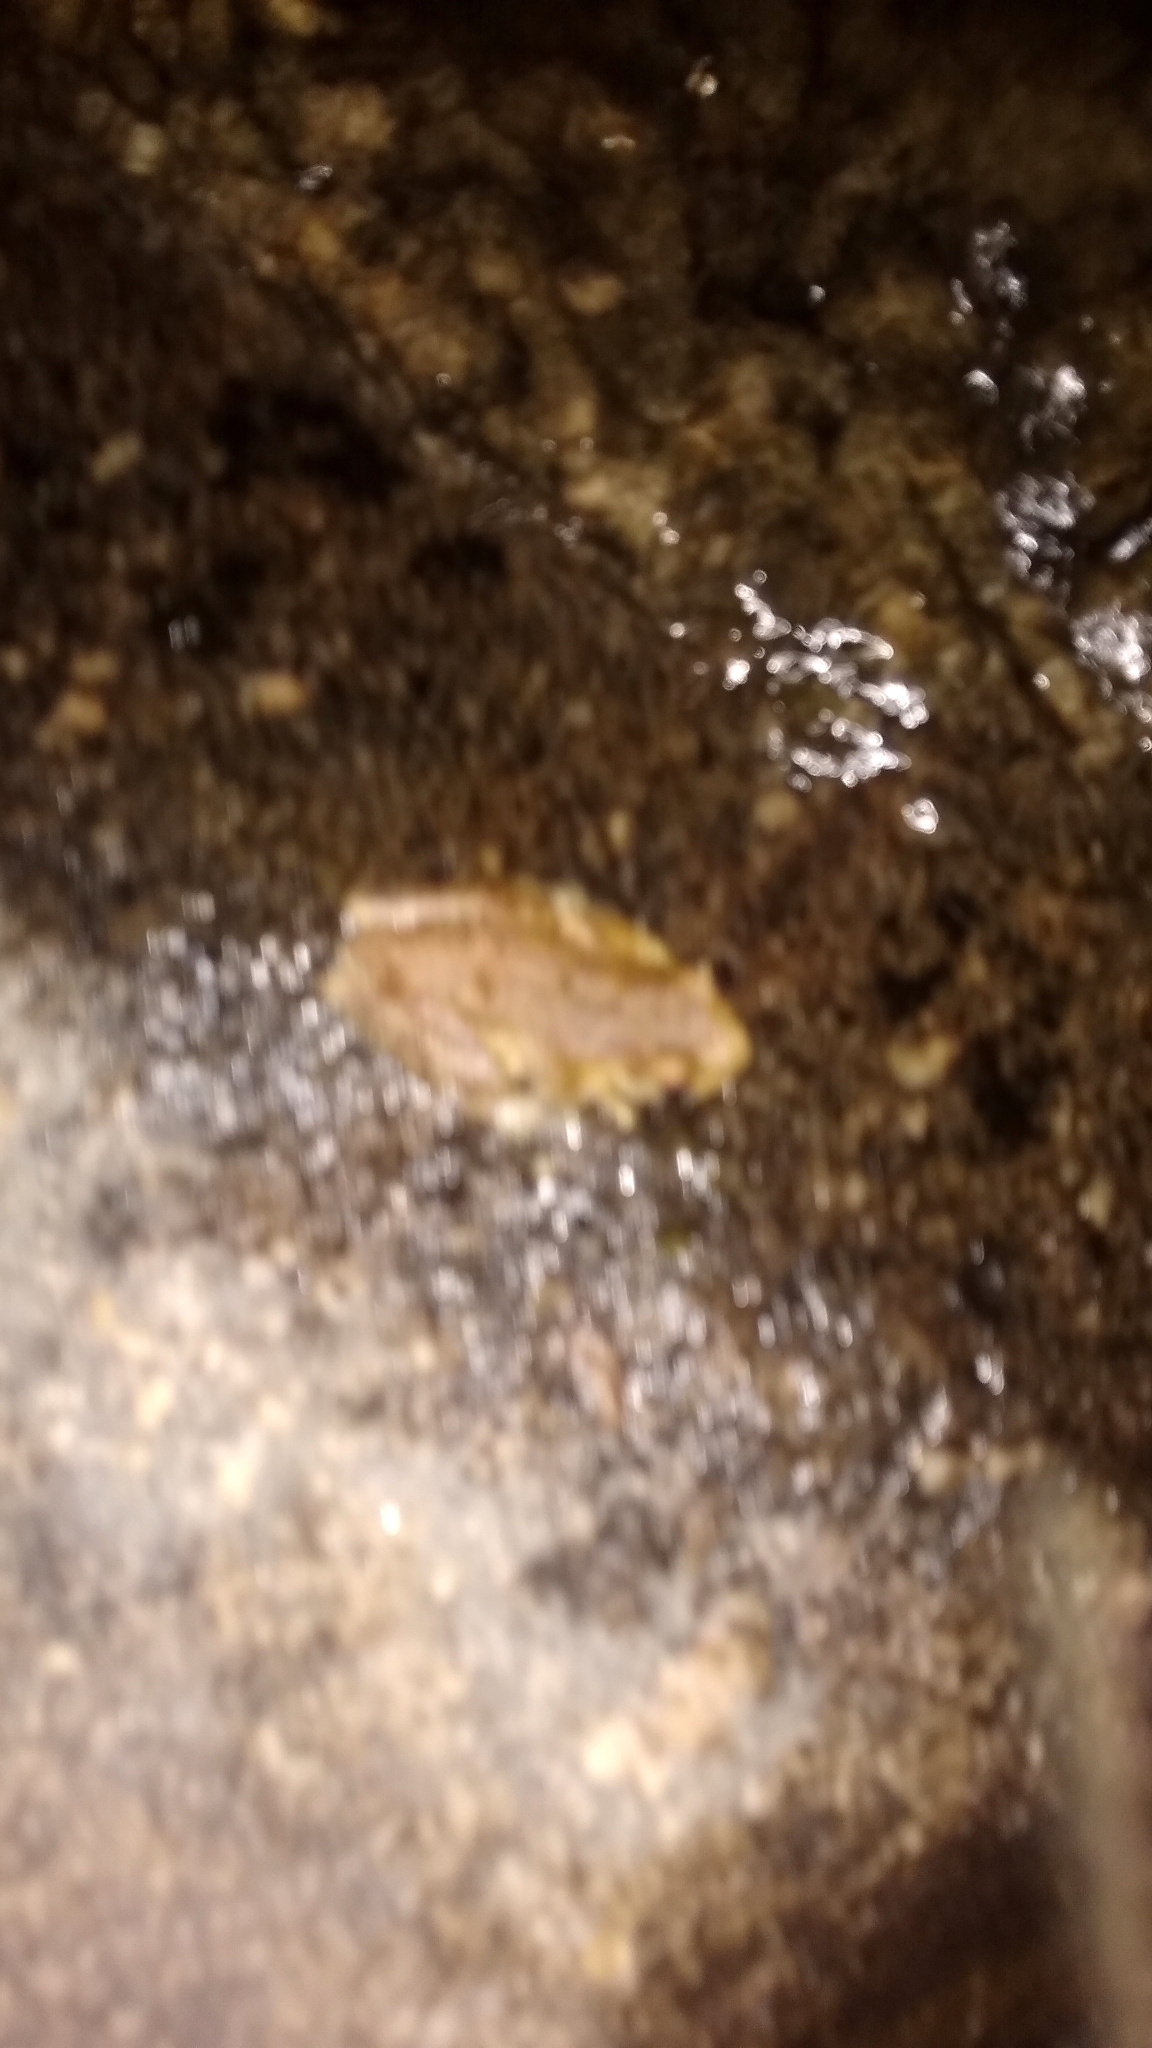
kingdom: Animalia
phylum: Chordata
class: Amphibia
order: Anura
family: Hylidae
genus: Boana
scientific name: Boana cordobae
